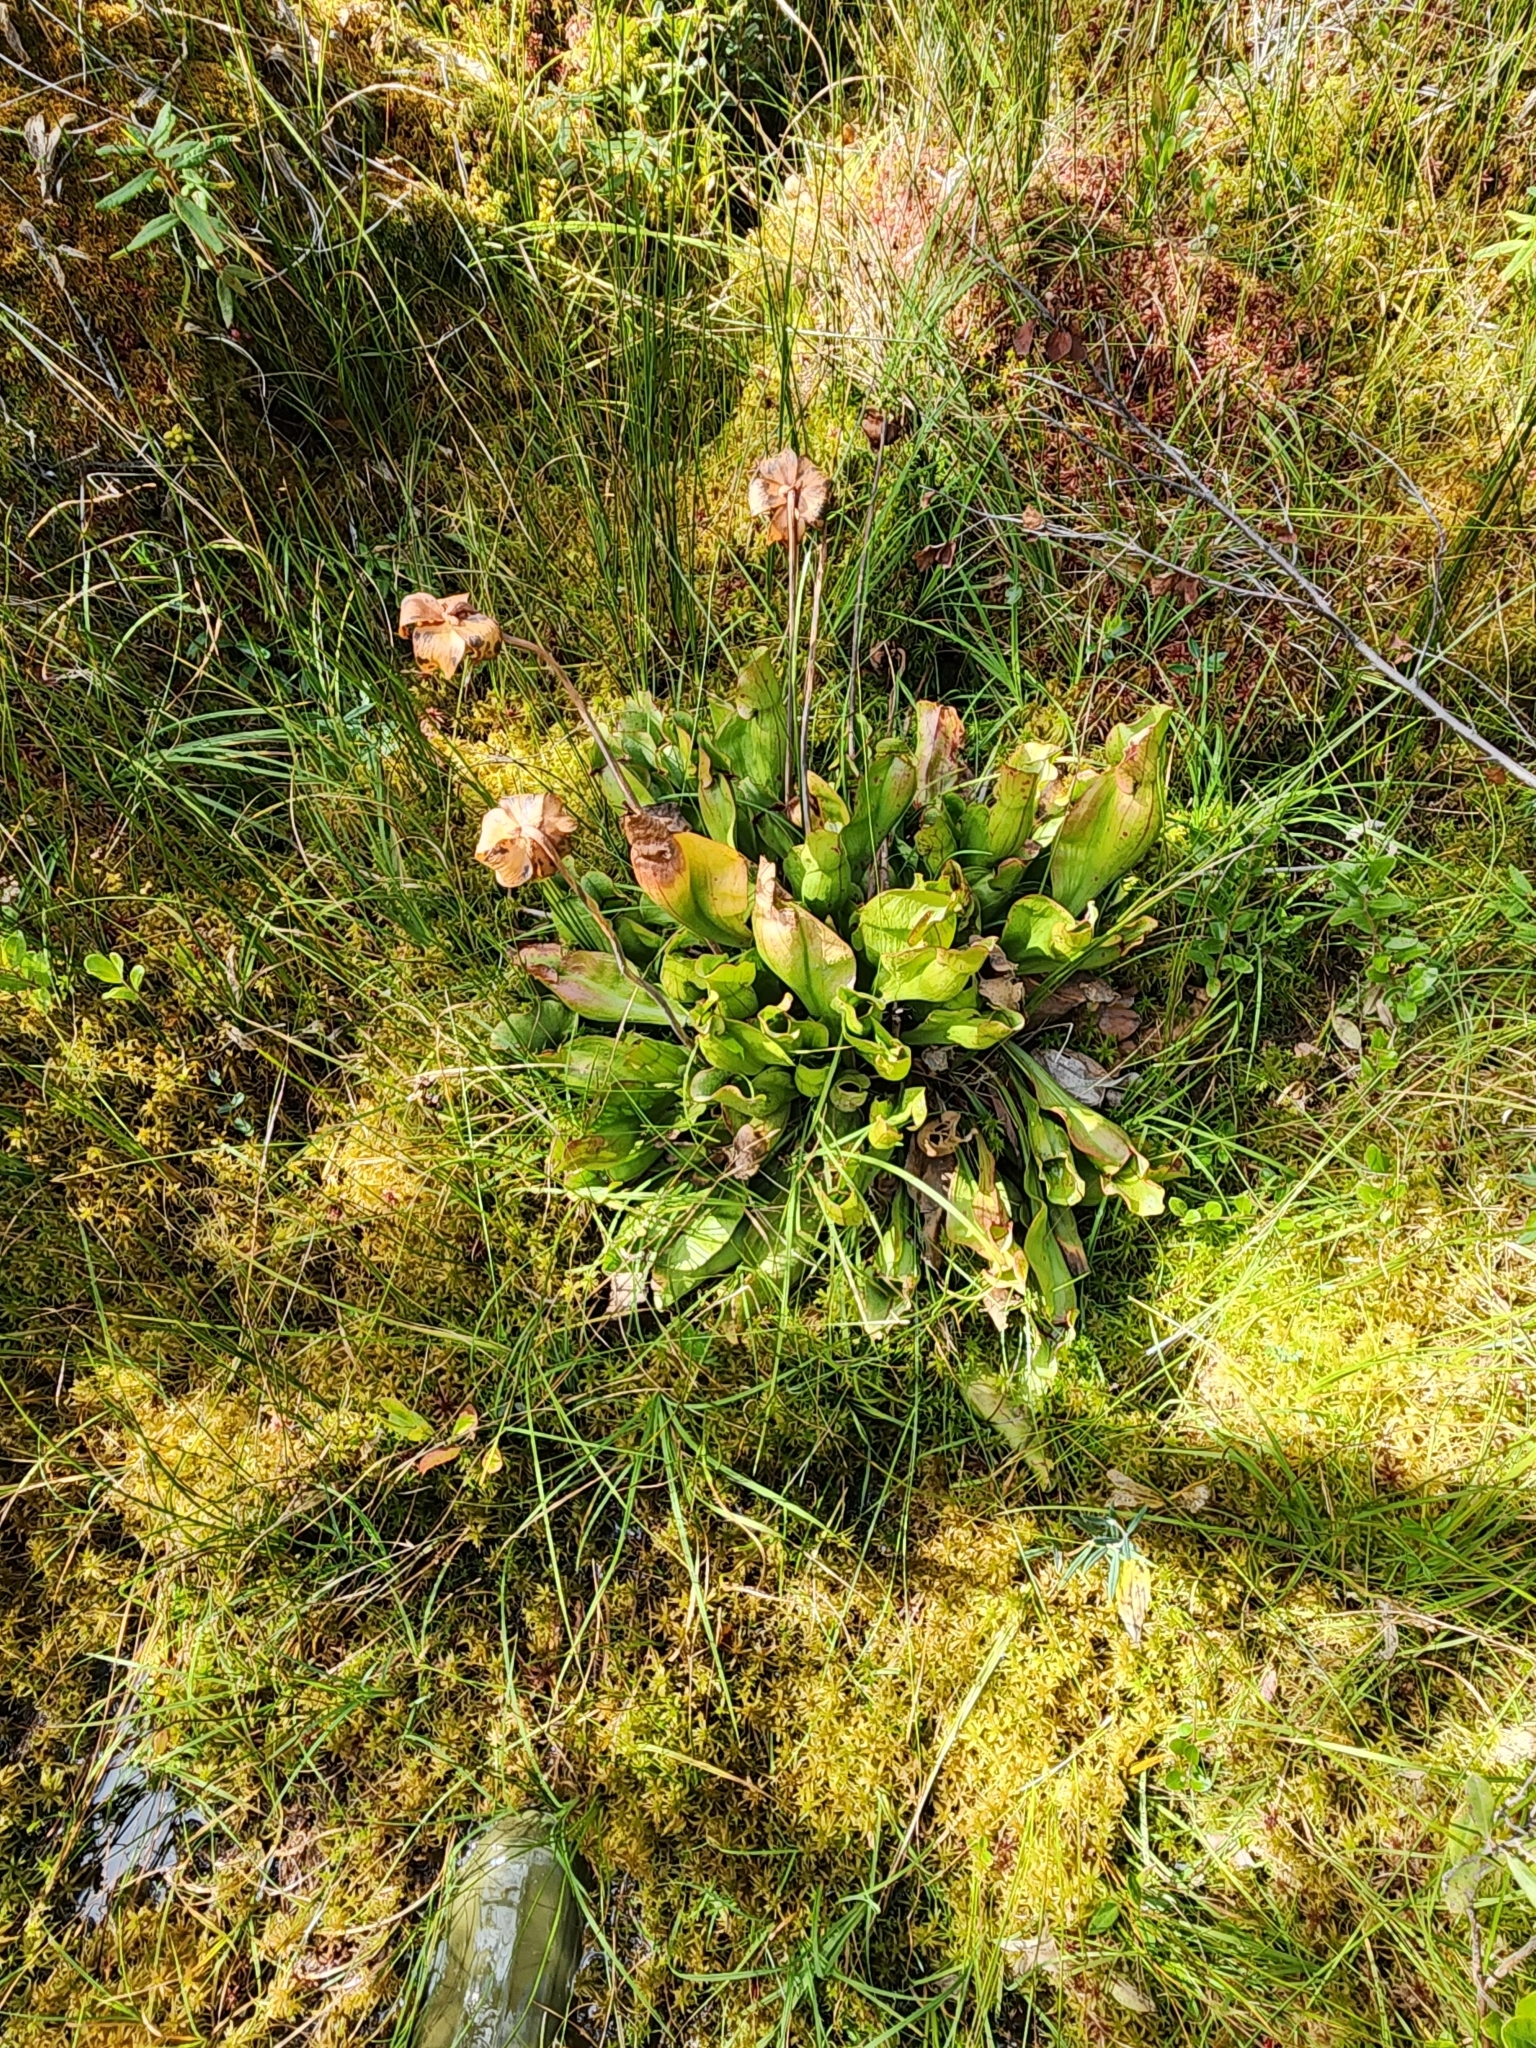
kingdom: Plantae
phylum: Tracheophyta
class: Magnoliopsida
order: Ericales
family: Sarraceniaceae
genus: Sarracenia
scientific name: Sarracenia purpurea
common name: Pitcherplant
